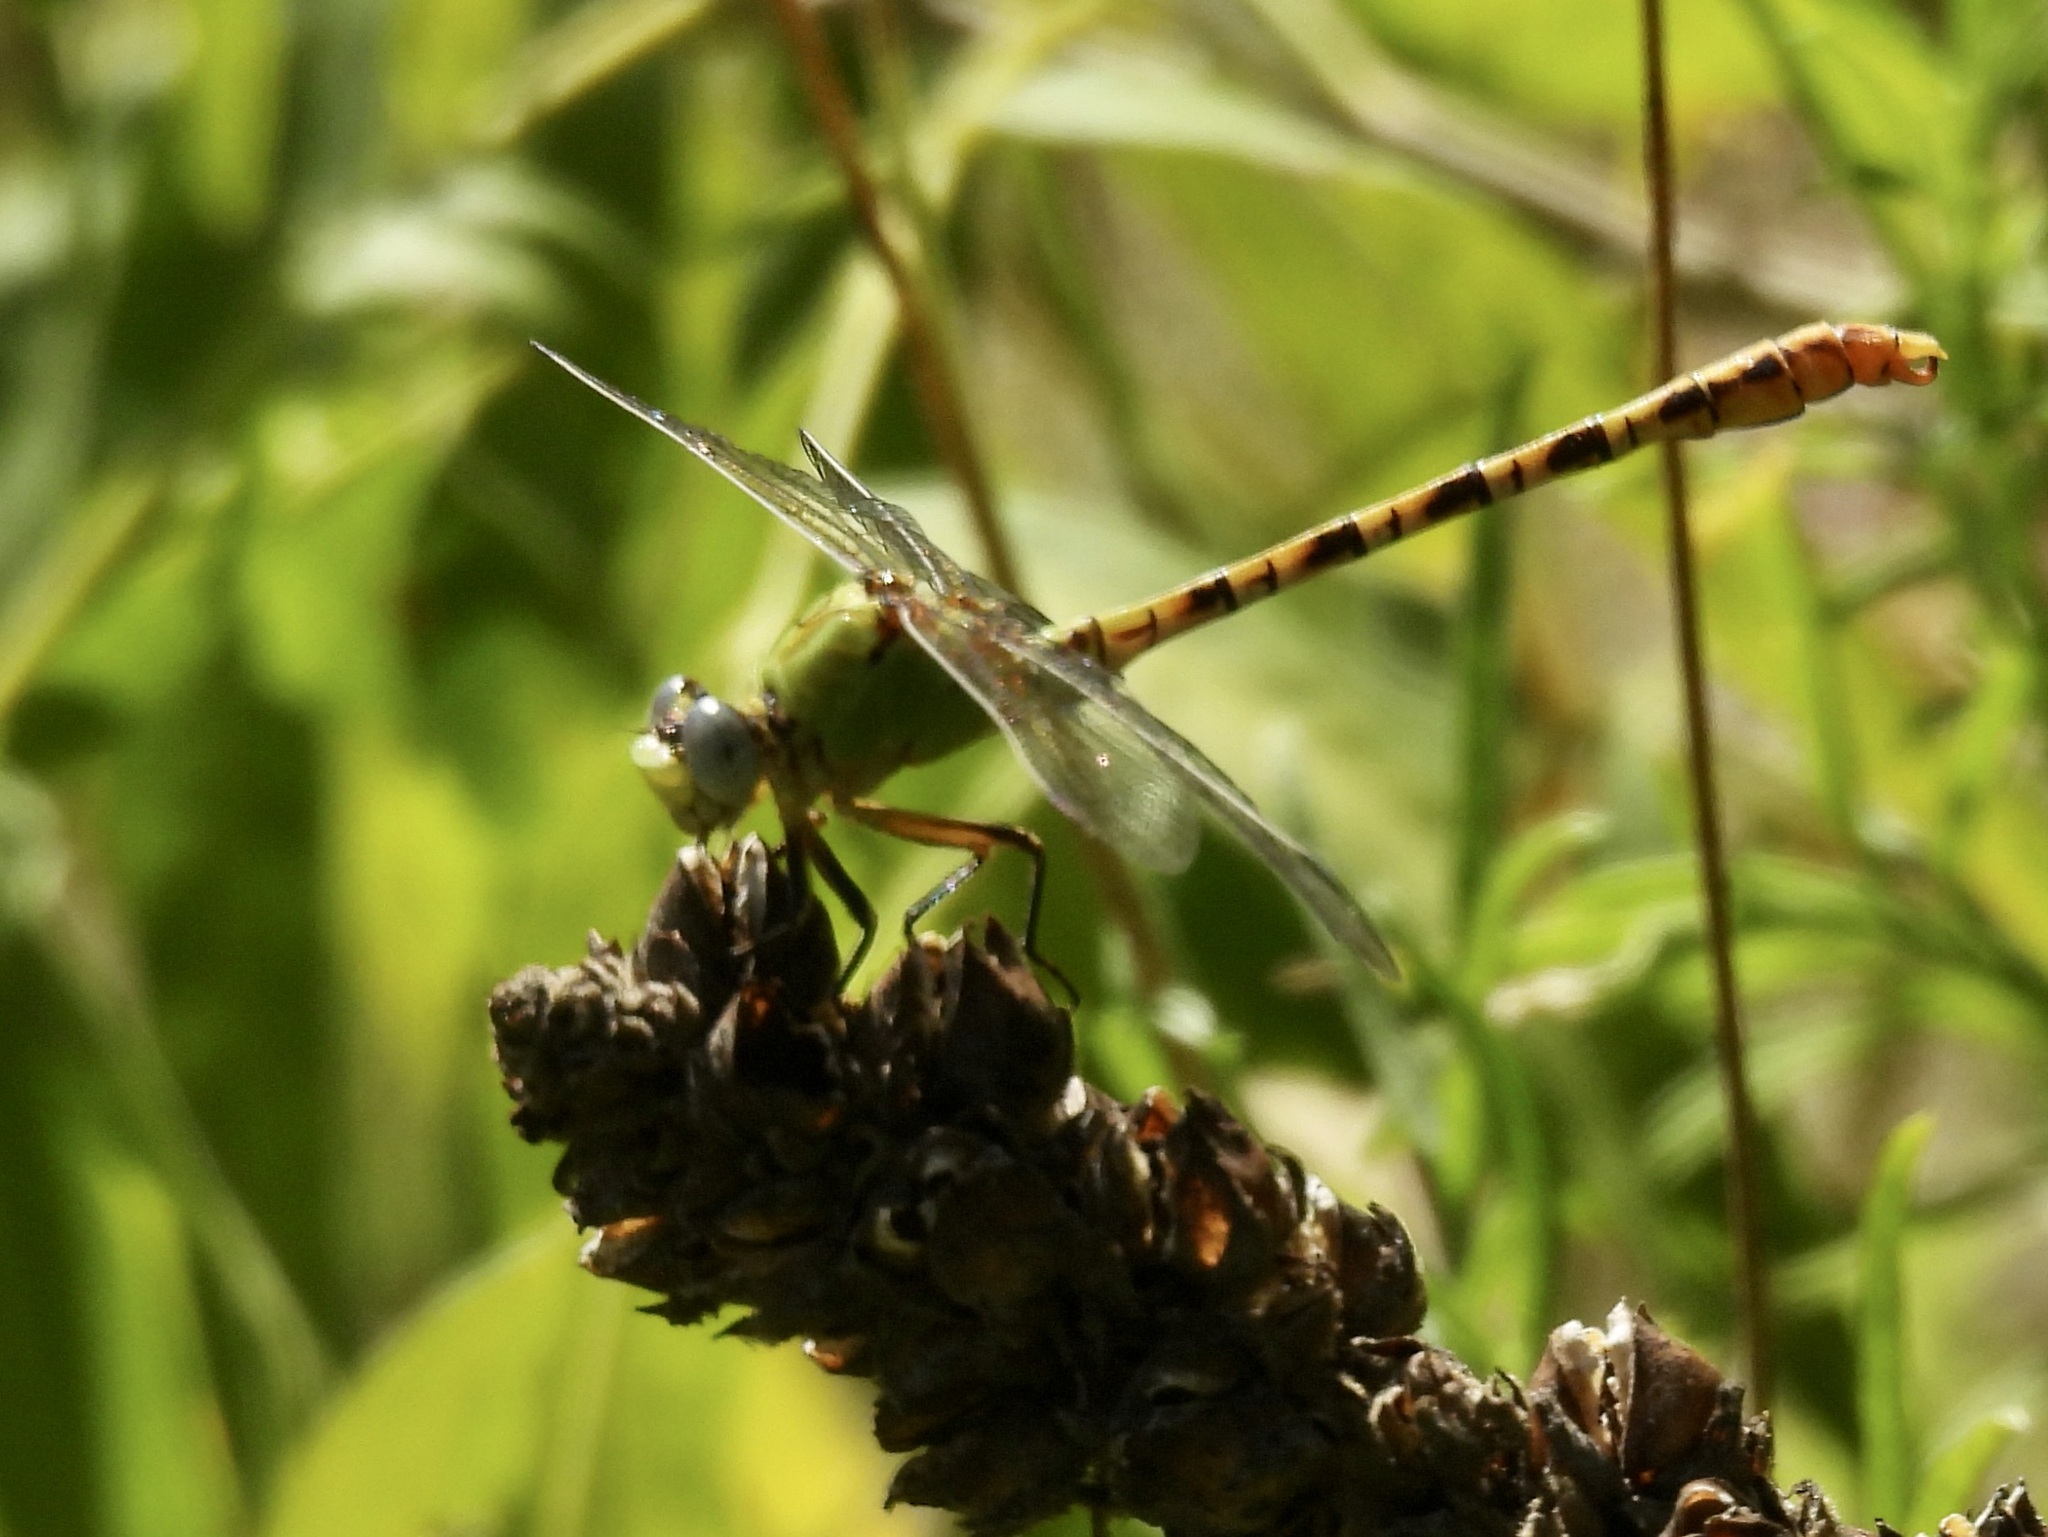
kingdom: Animalia
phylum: Arthropoda
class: Insecta
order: Odonata
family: Gomphidae
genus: Erpetogomphus
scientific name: Erpetogomphus crotalinus
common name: Yellow-legged ringtail
